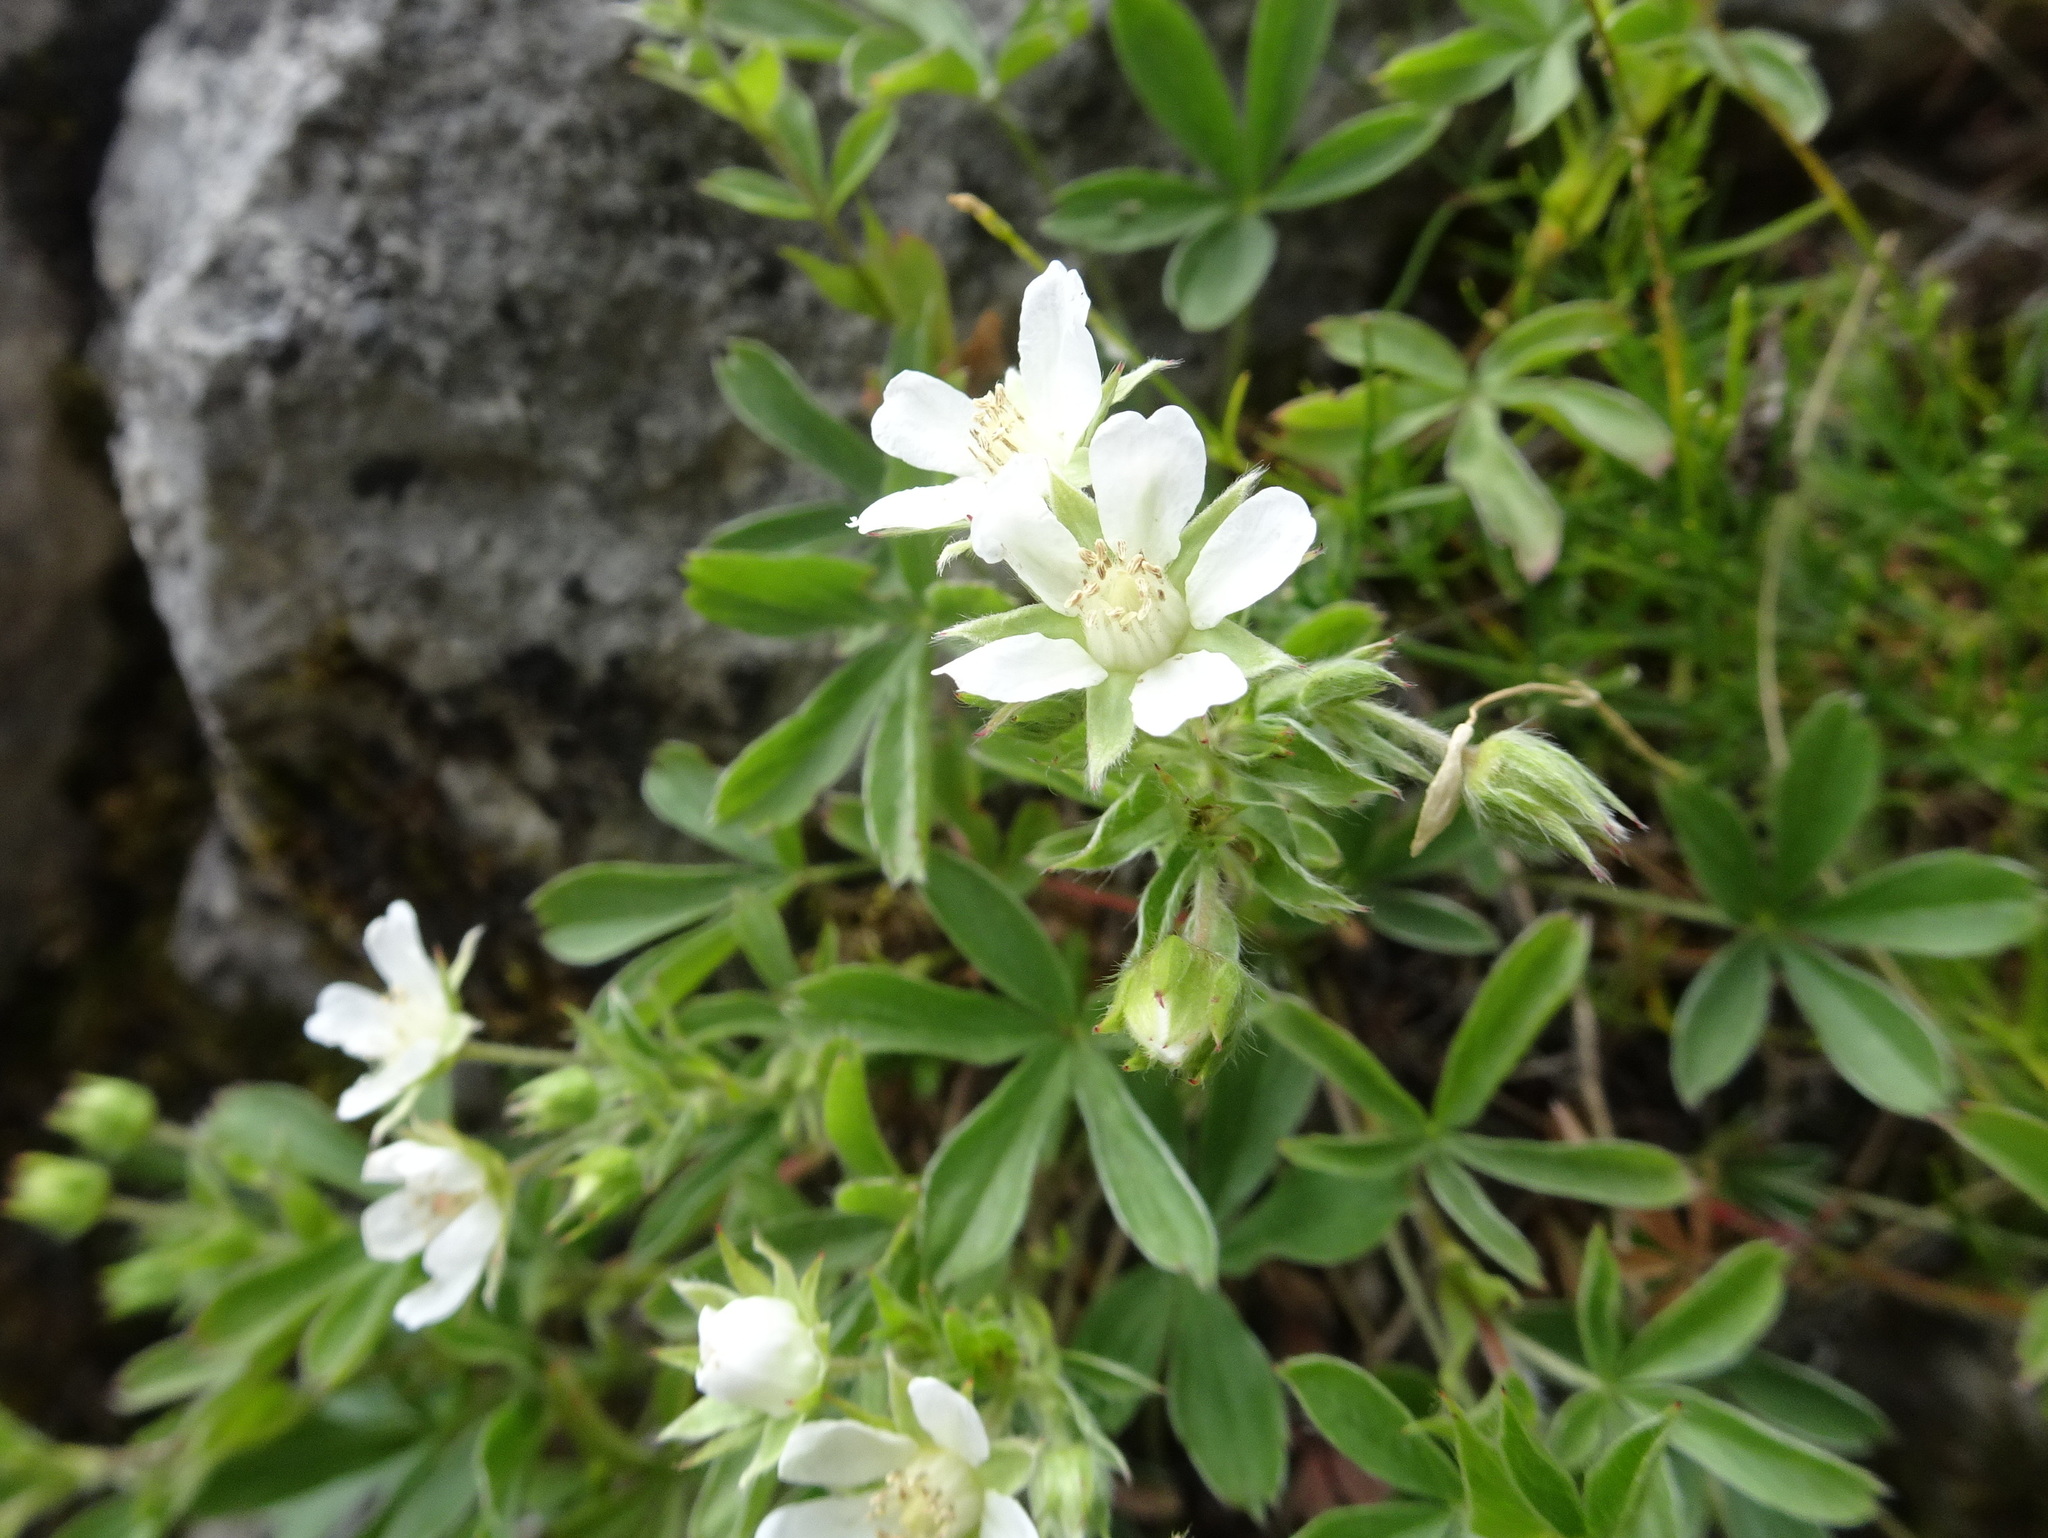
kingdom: Plantae
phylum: Tracheophyta
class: Magnoliopsida
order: Rosales
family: Rosaceae
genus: Potentilla
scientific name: Potentilla caulescens
